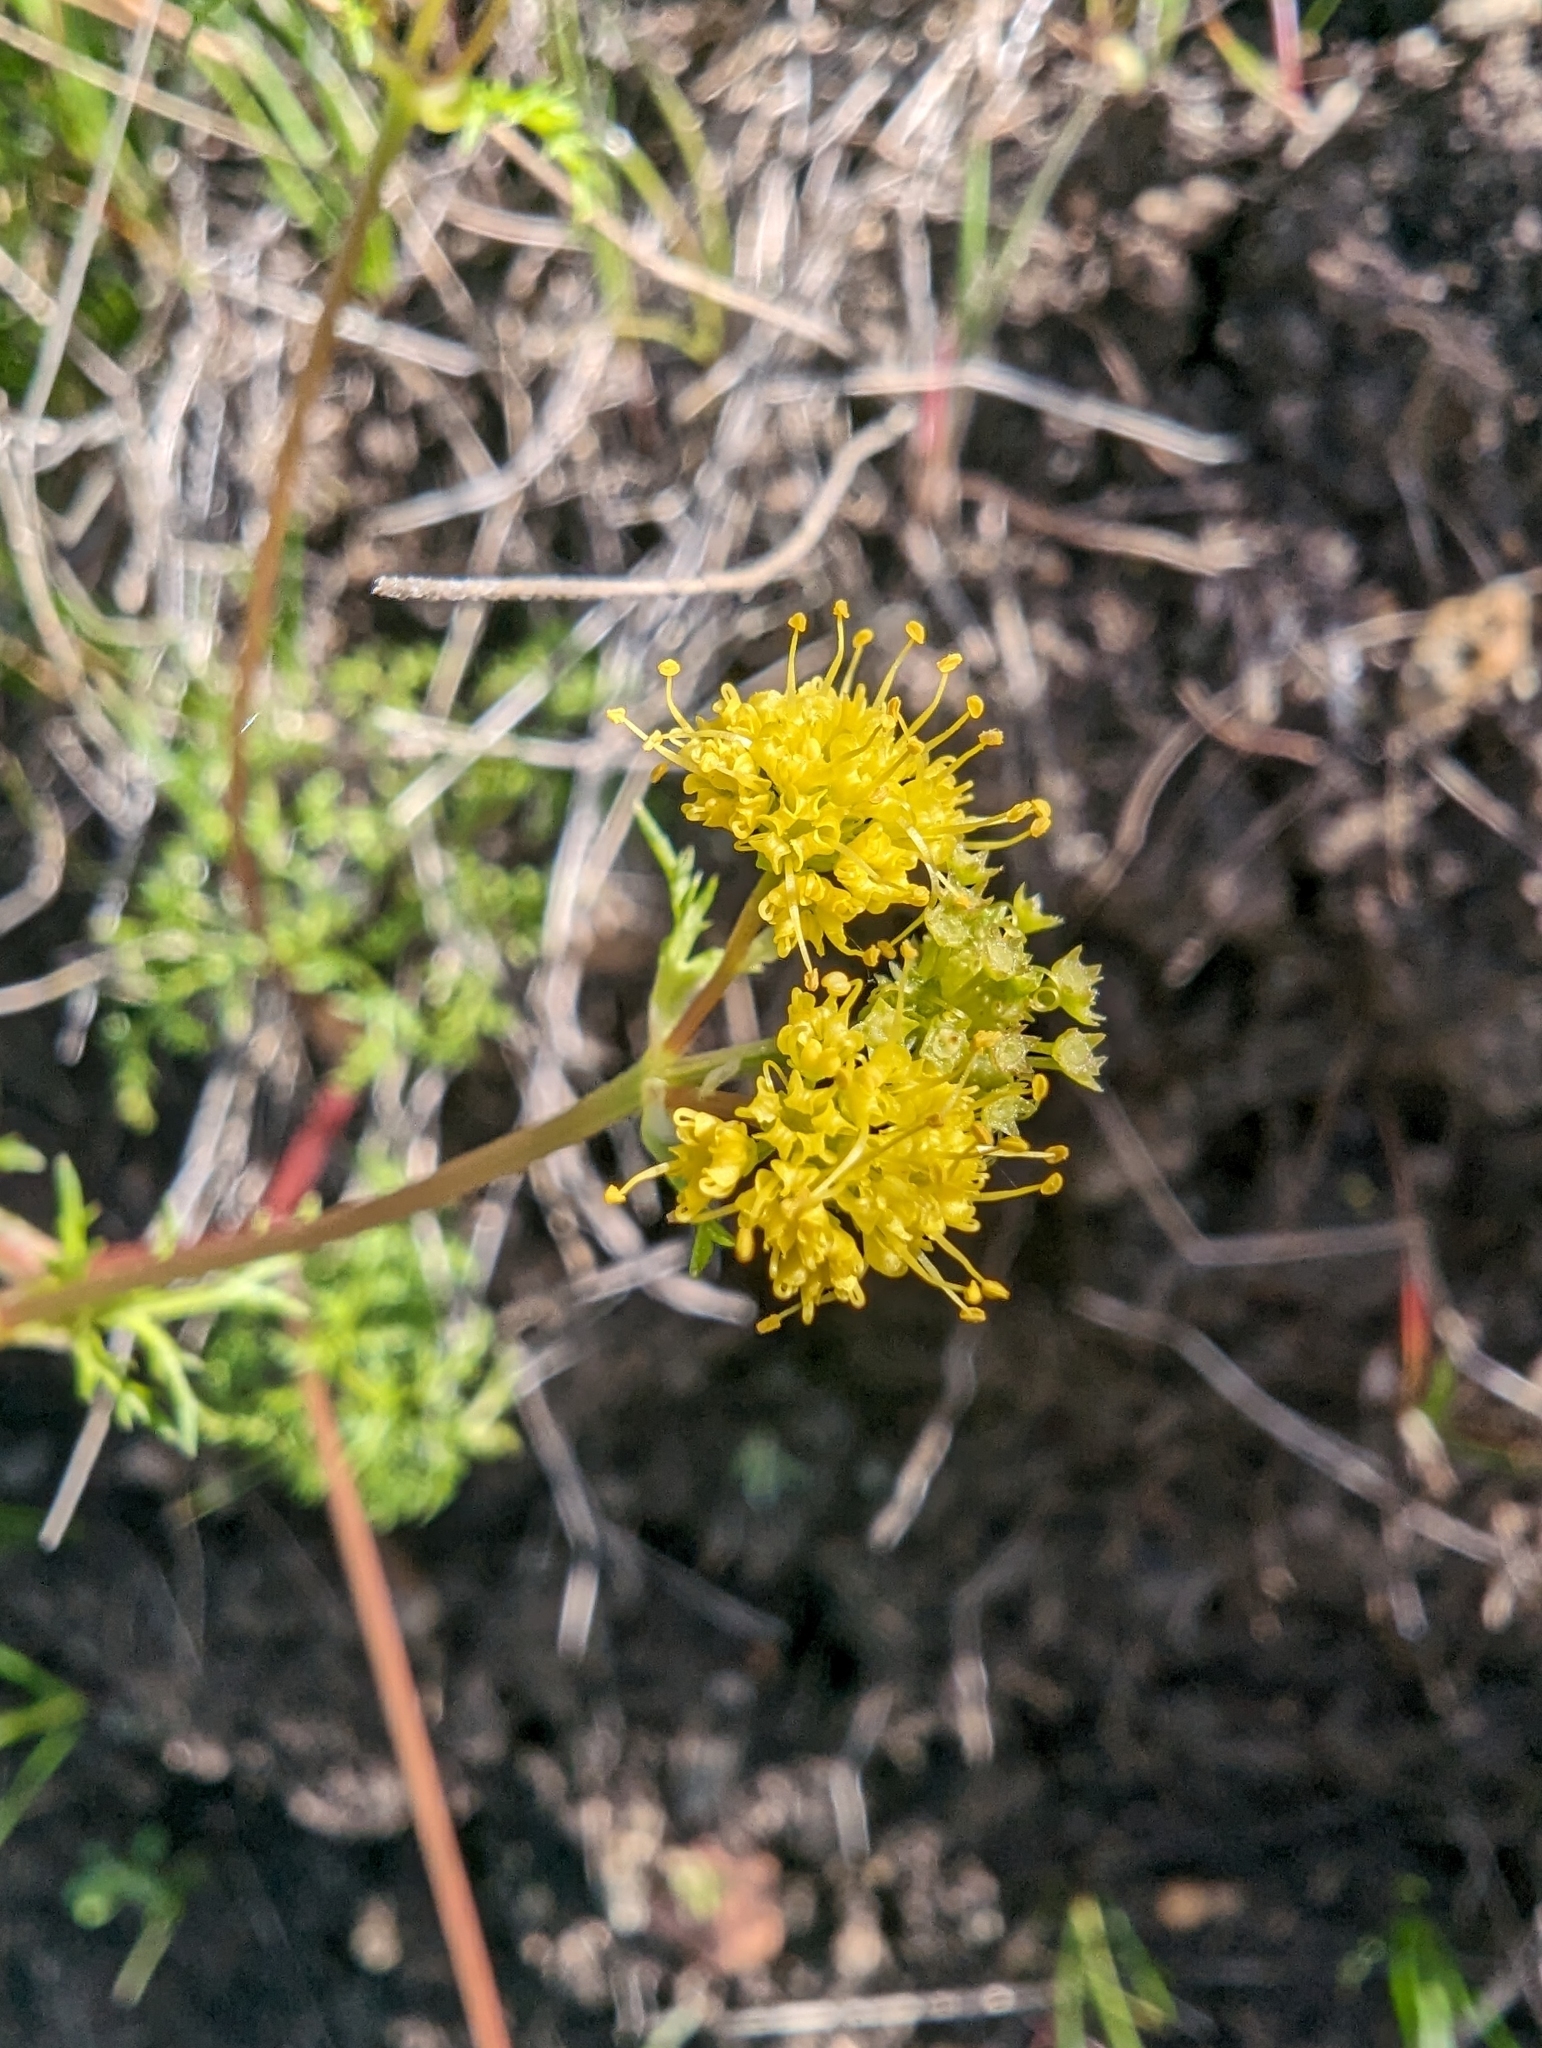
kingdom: Plantae
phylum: Tracheophyta
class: Magnoliopsida
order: Apiales
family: Apiaceae
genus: Sanicula
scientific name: Sanicula tuberosa
